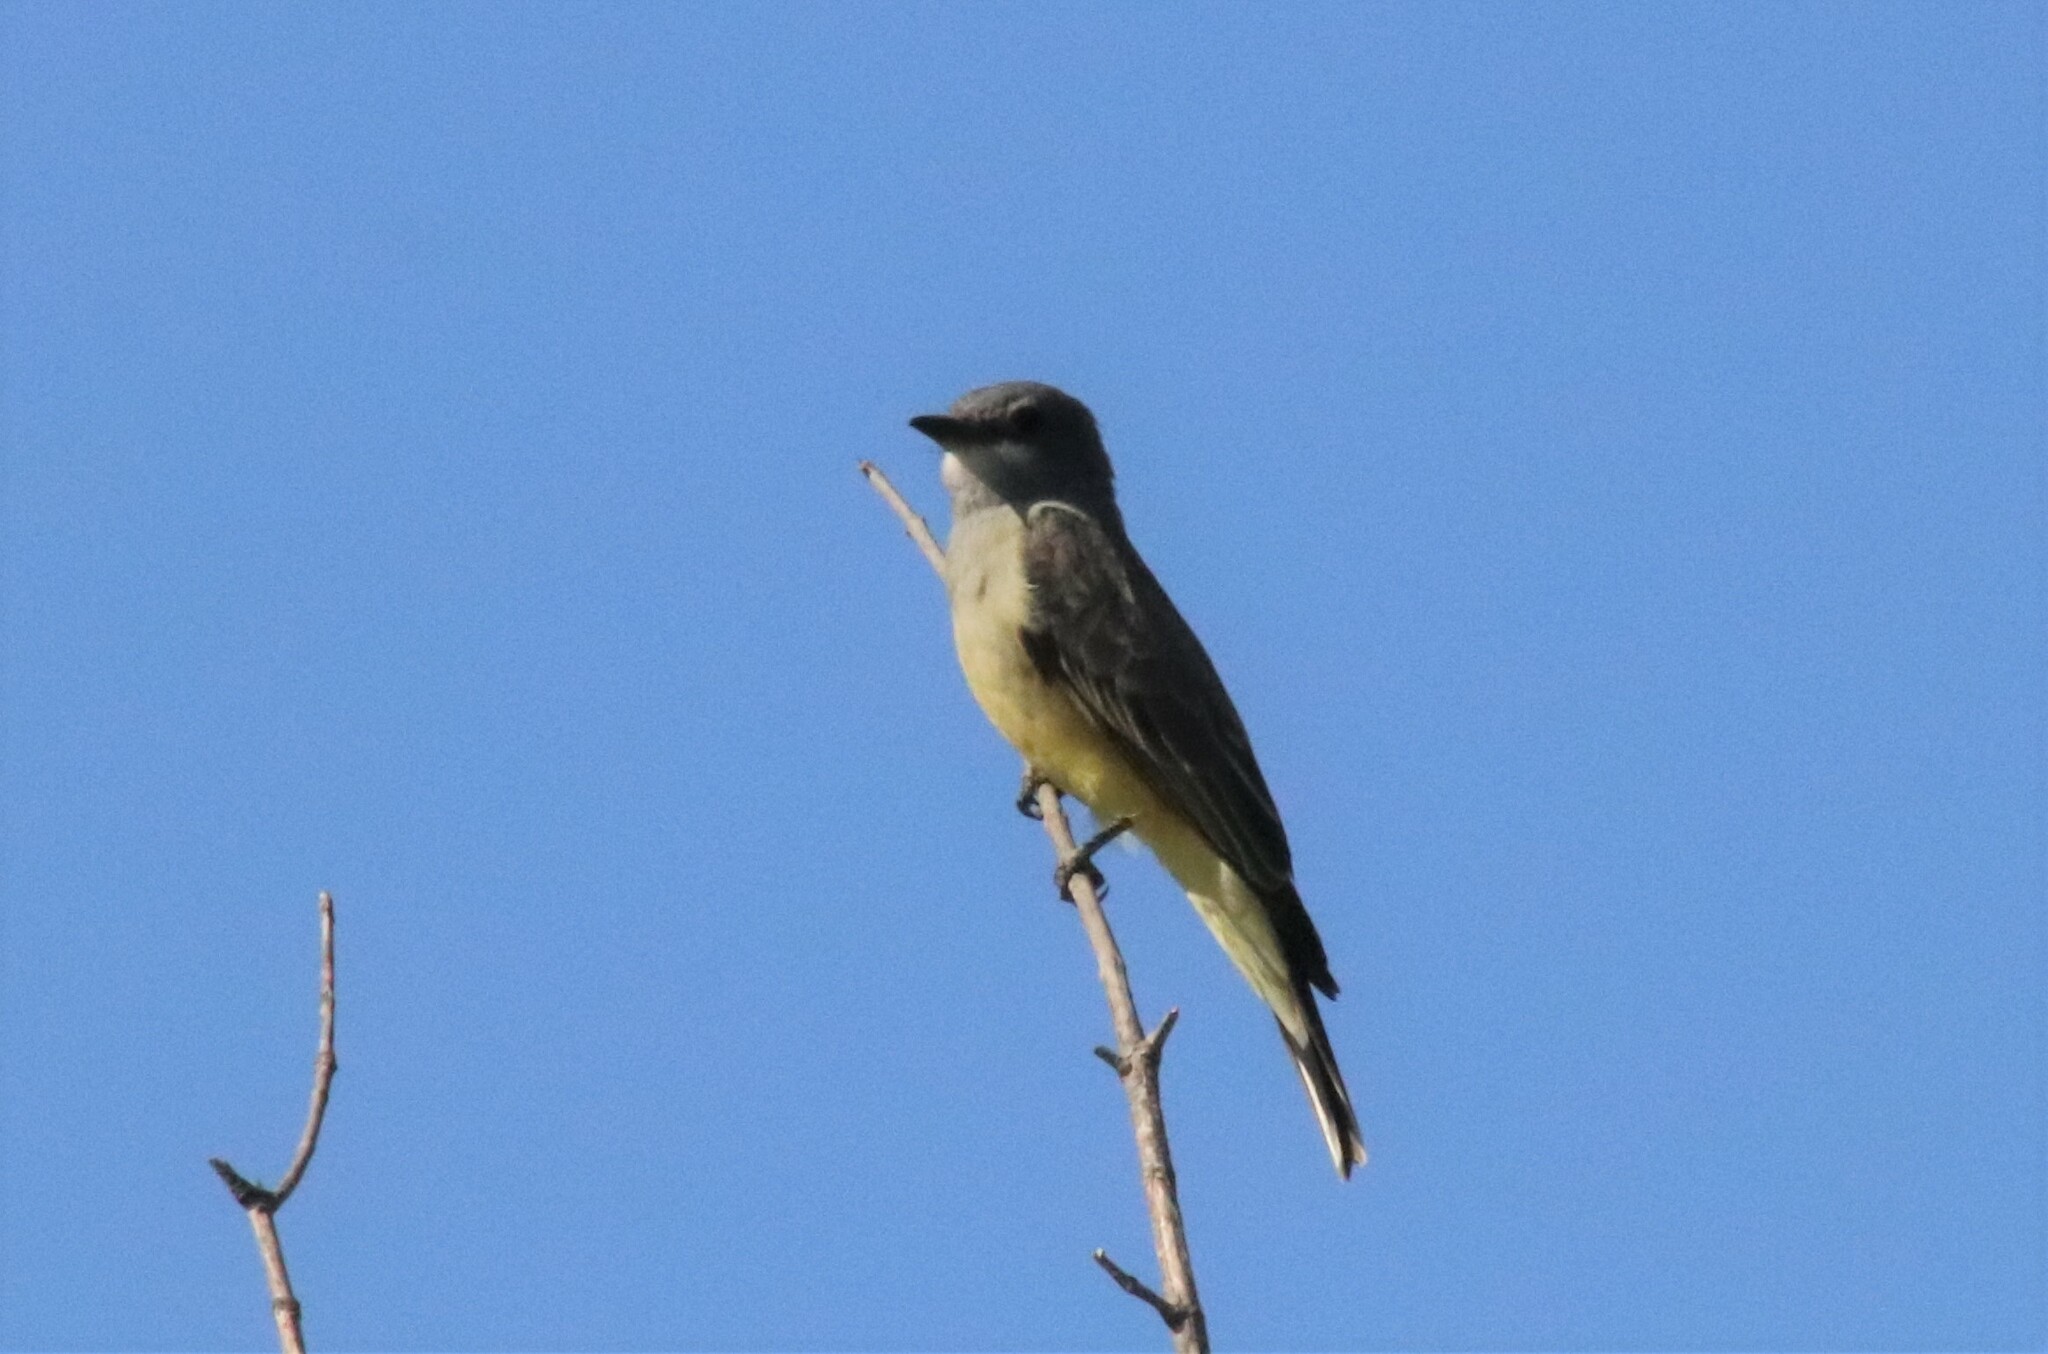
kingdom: Animalia
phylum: Chordata
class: Aves
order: Passeriformes
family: Tyrannidae
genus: Tyrannus
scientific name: Tyrannus vociferans
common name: Cassin's kingbird
